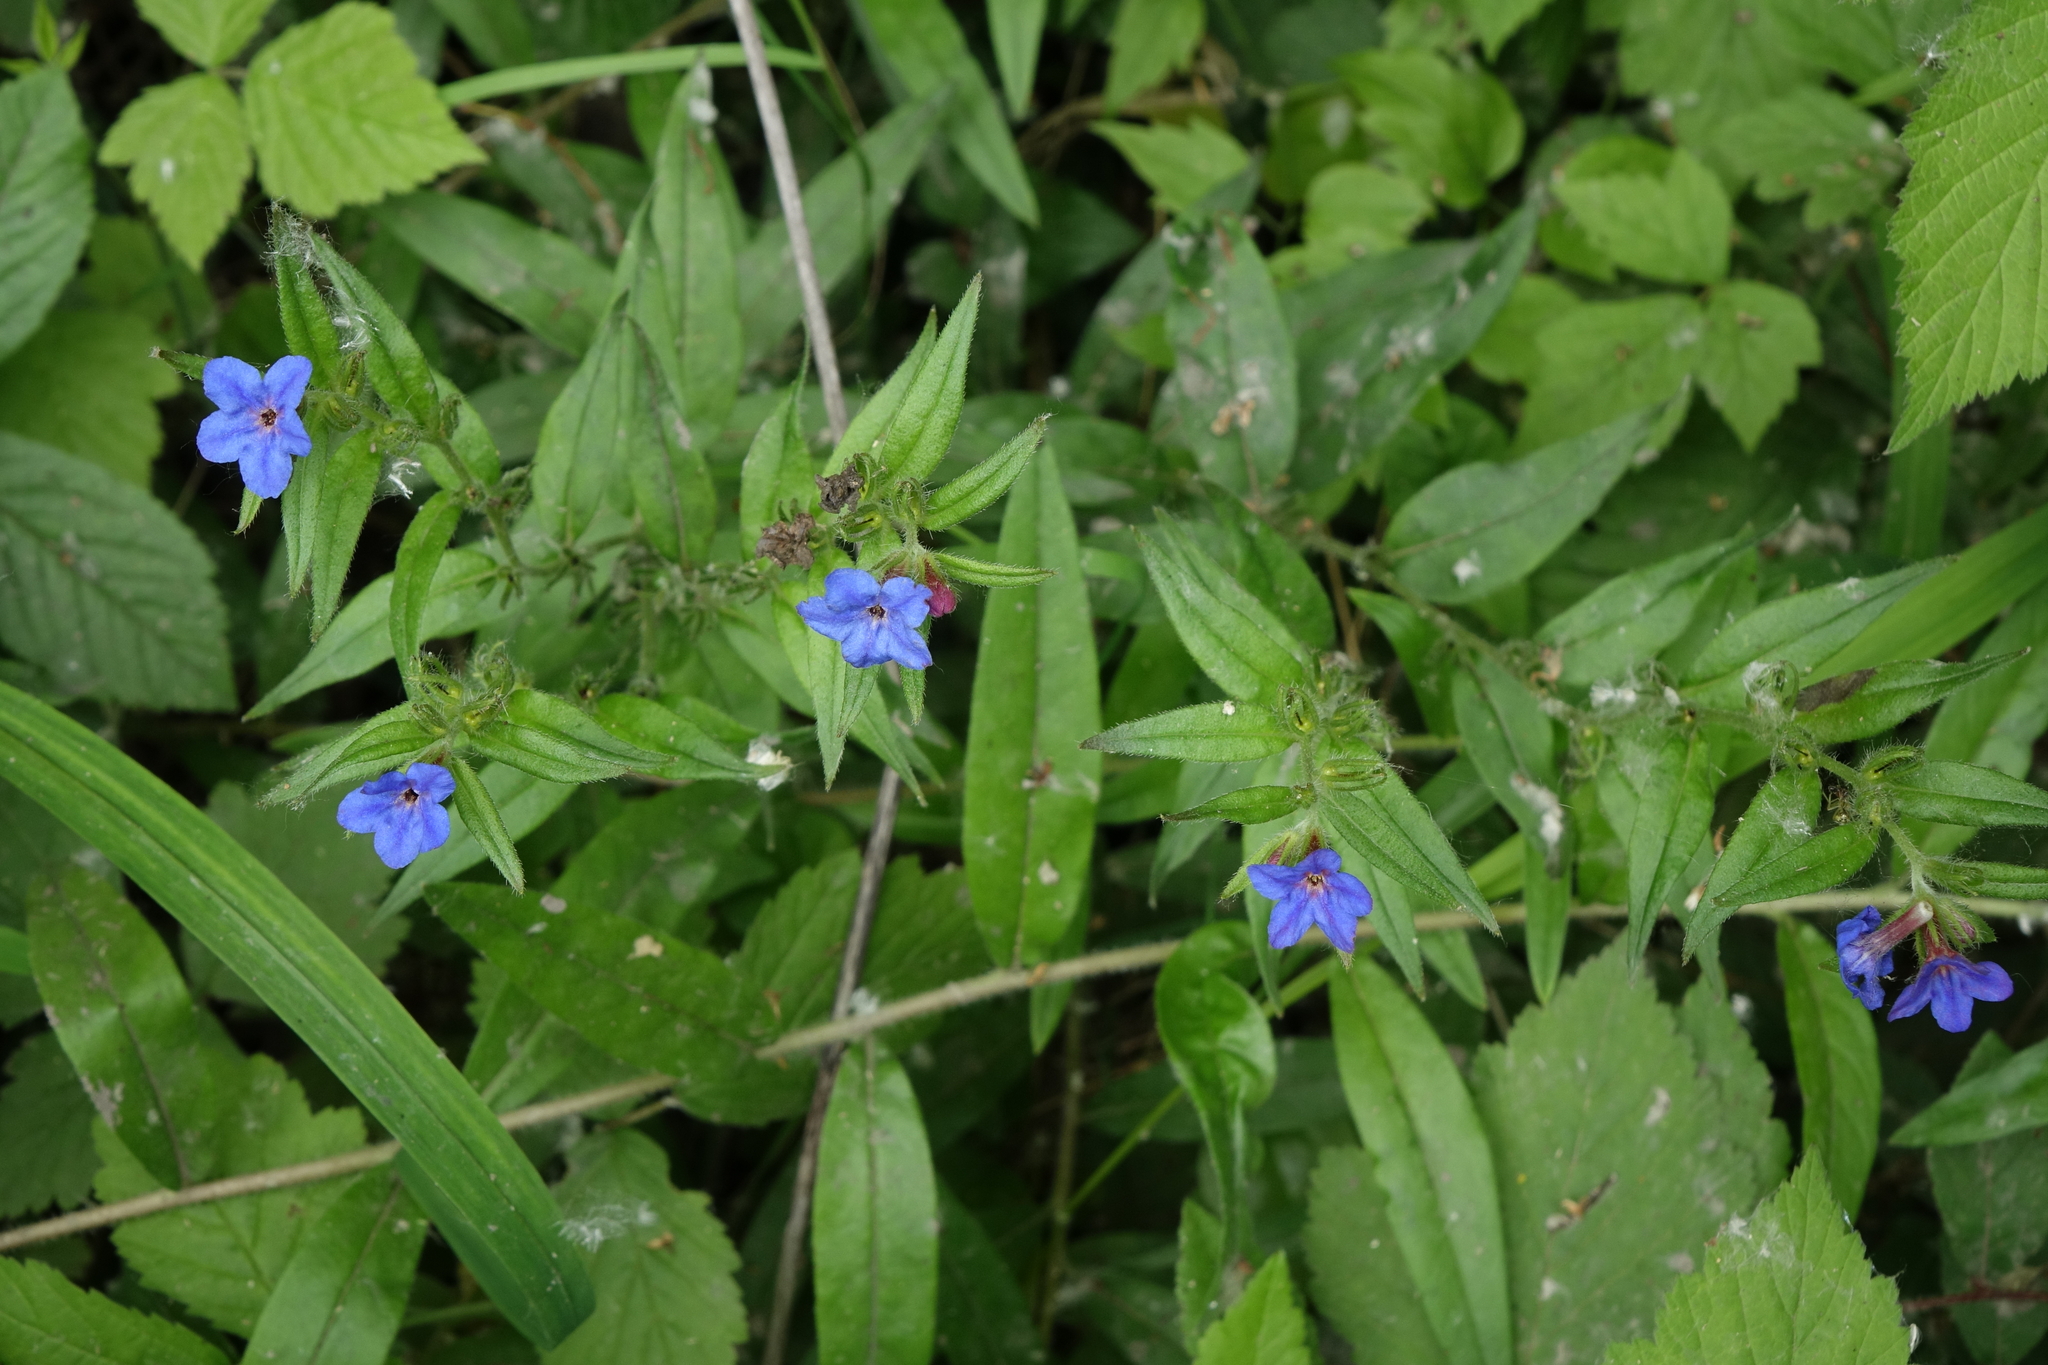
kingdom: Plantae
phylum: Tracheophyta
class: Magnoliopsida
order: Boraginales
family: Boraginaceae
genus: Aegonychon
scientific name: Aegonychon purpurocaeruleum
